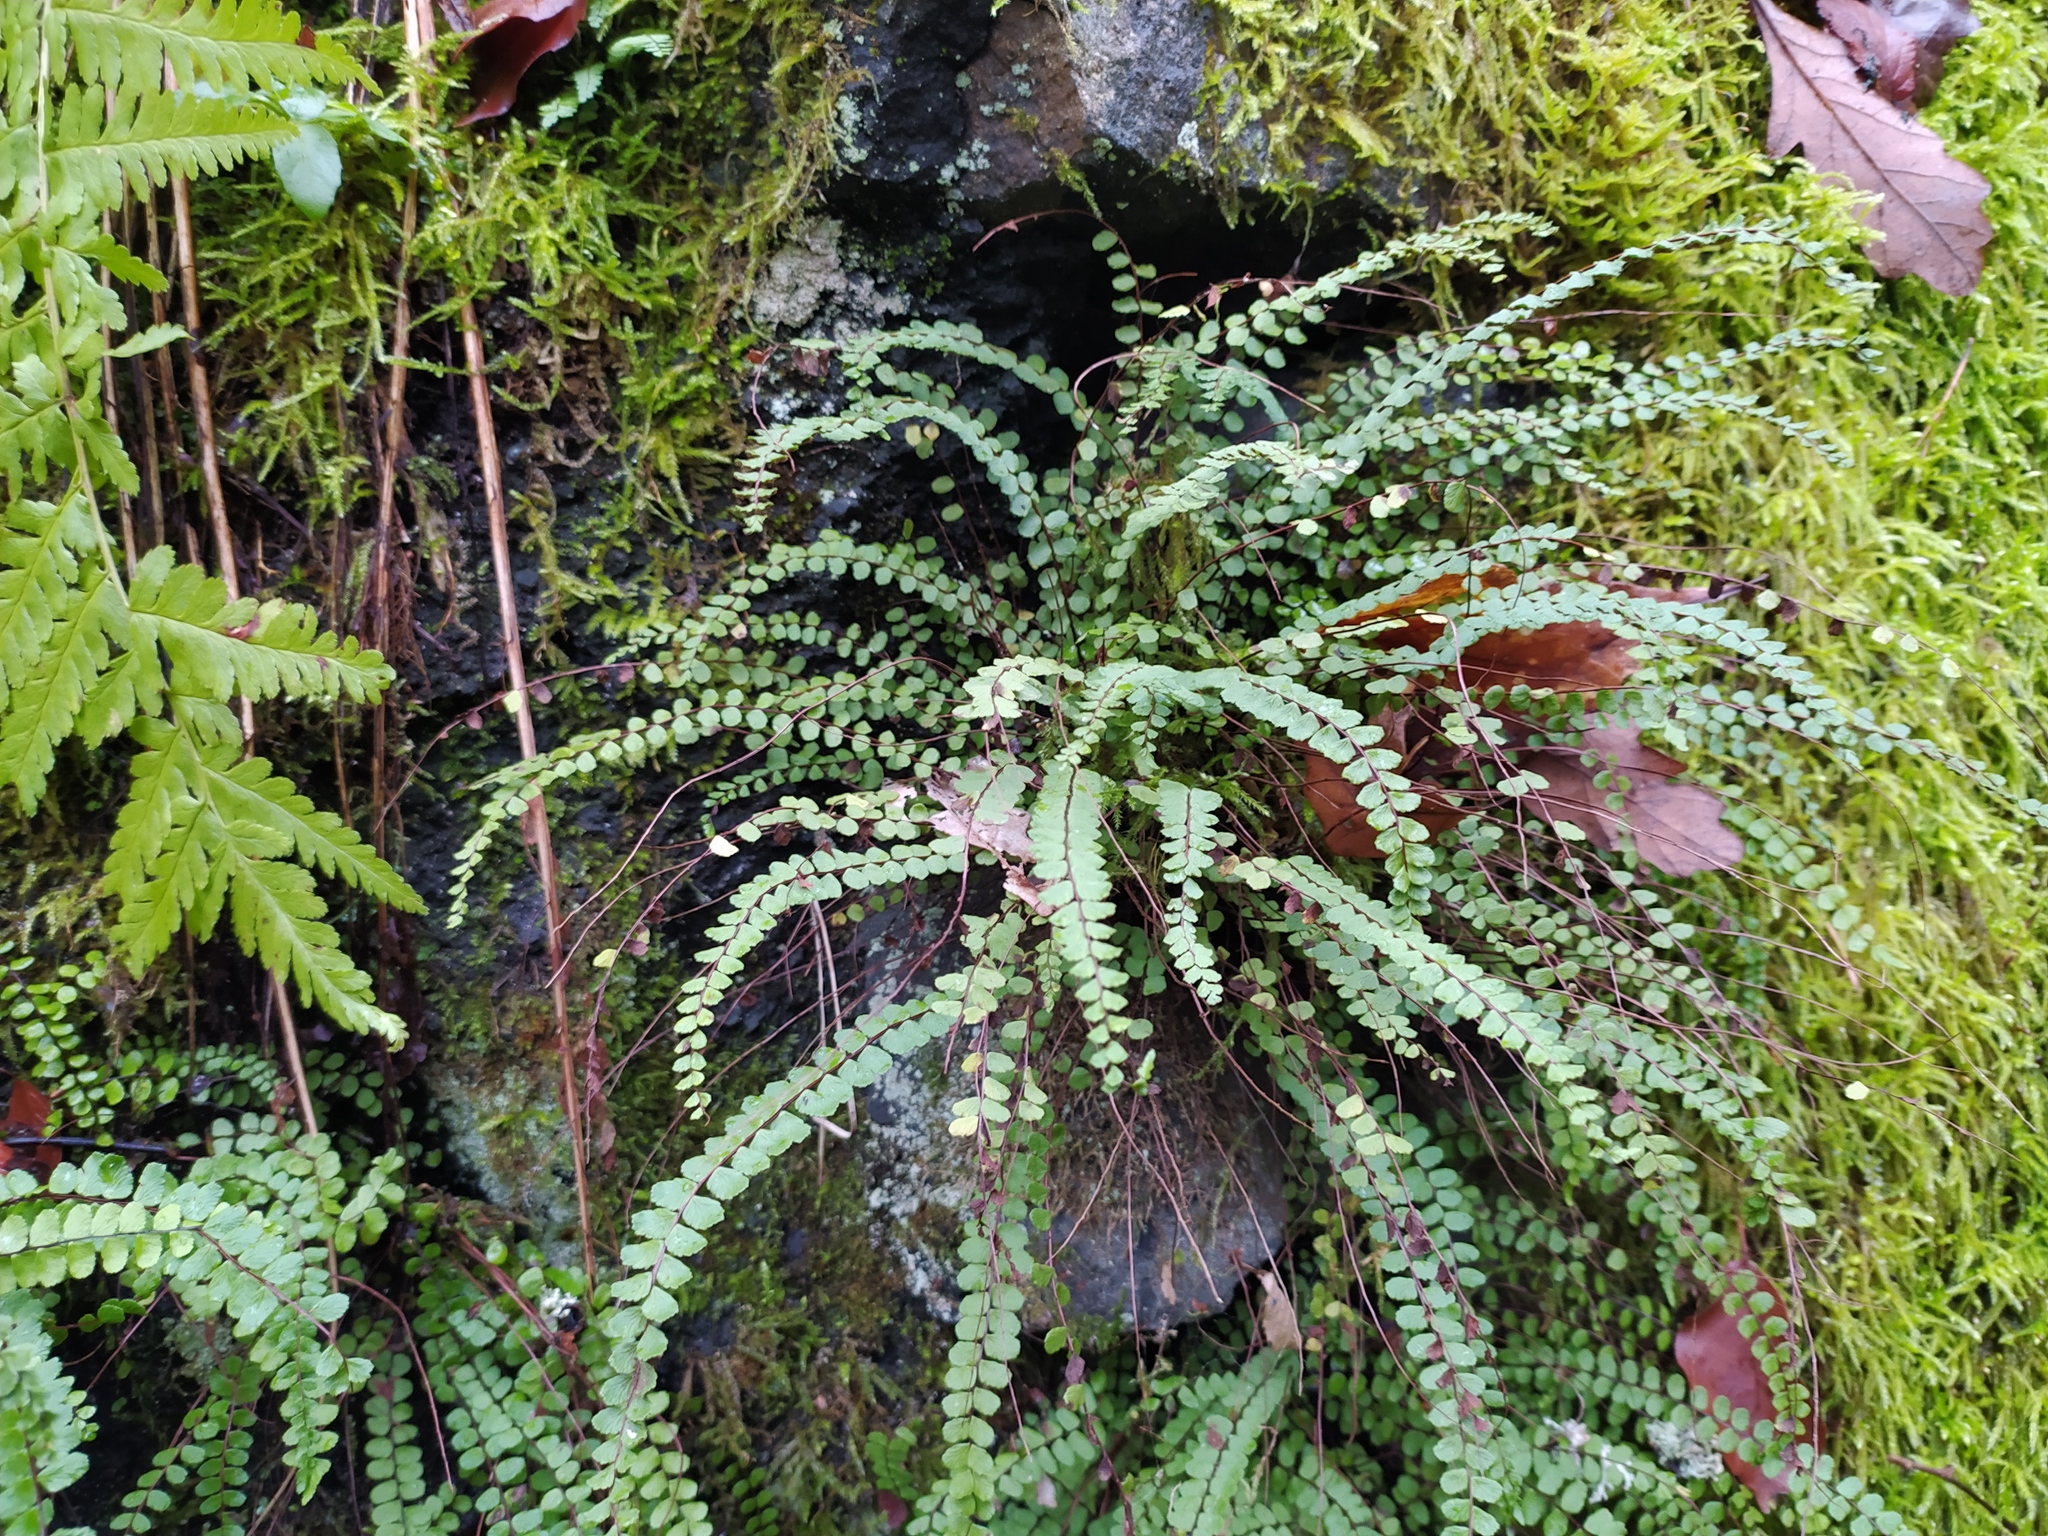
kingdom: Plantae
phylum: Tracheophyta
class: Polypodiopsida
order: Polypodiales
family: Aspleniaceae
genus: Asplenium
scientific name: Asplenium trichomanes
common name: Maidenhair spleenwort
